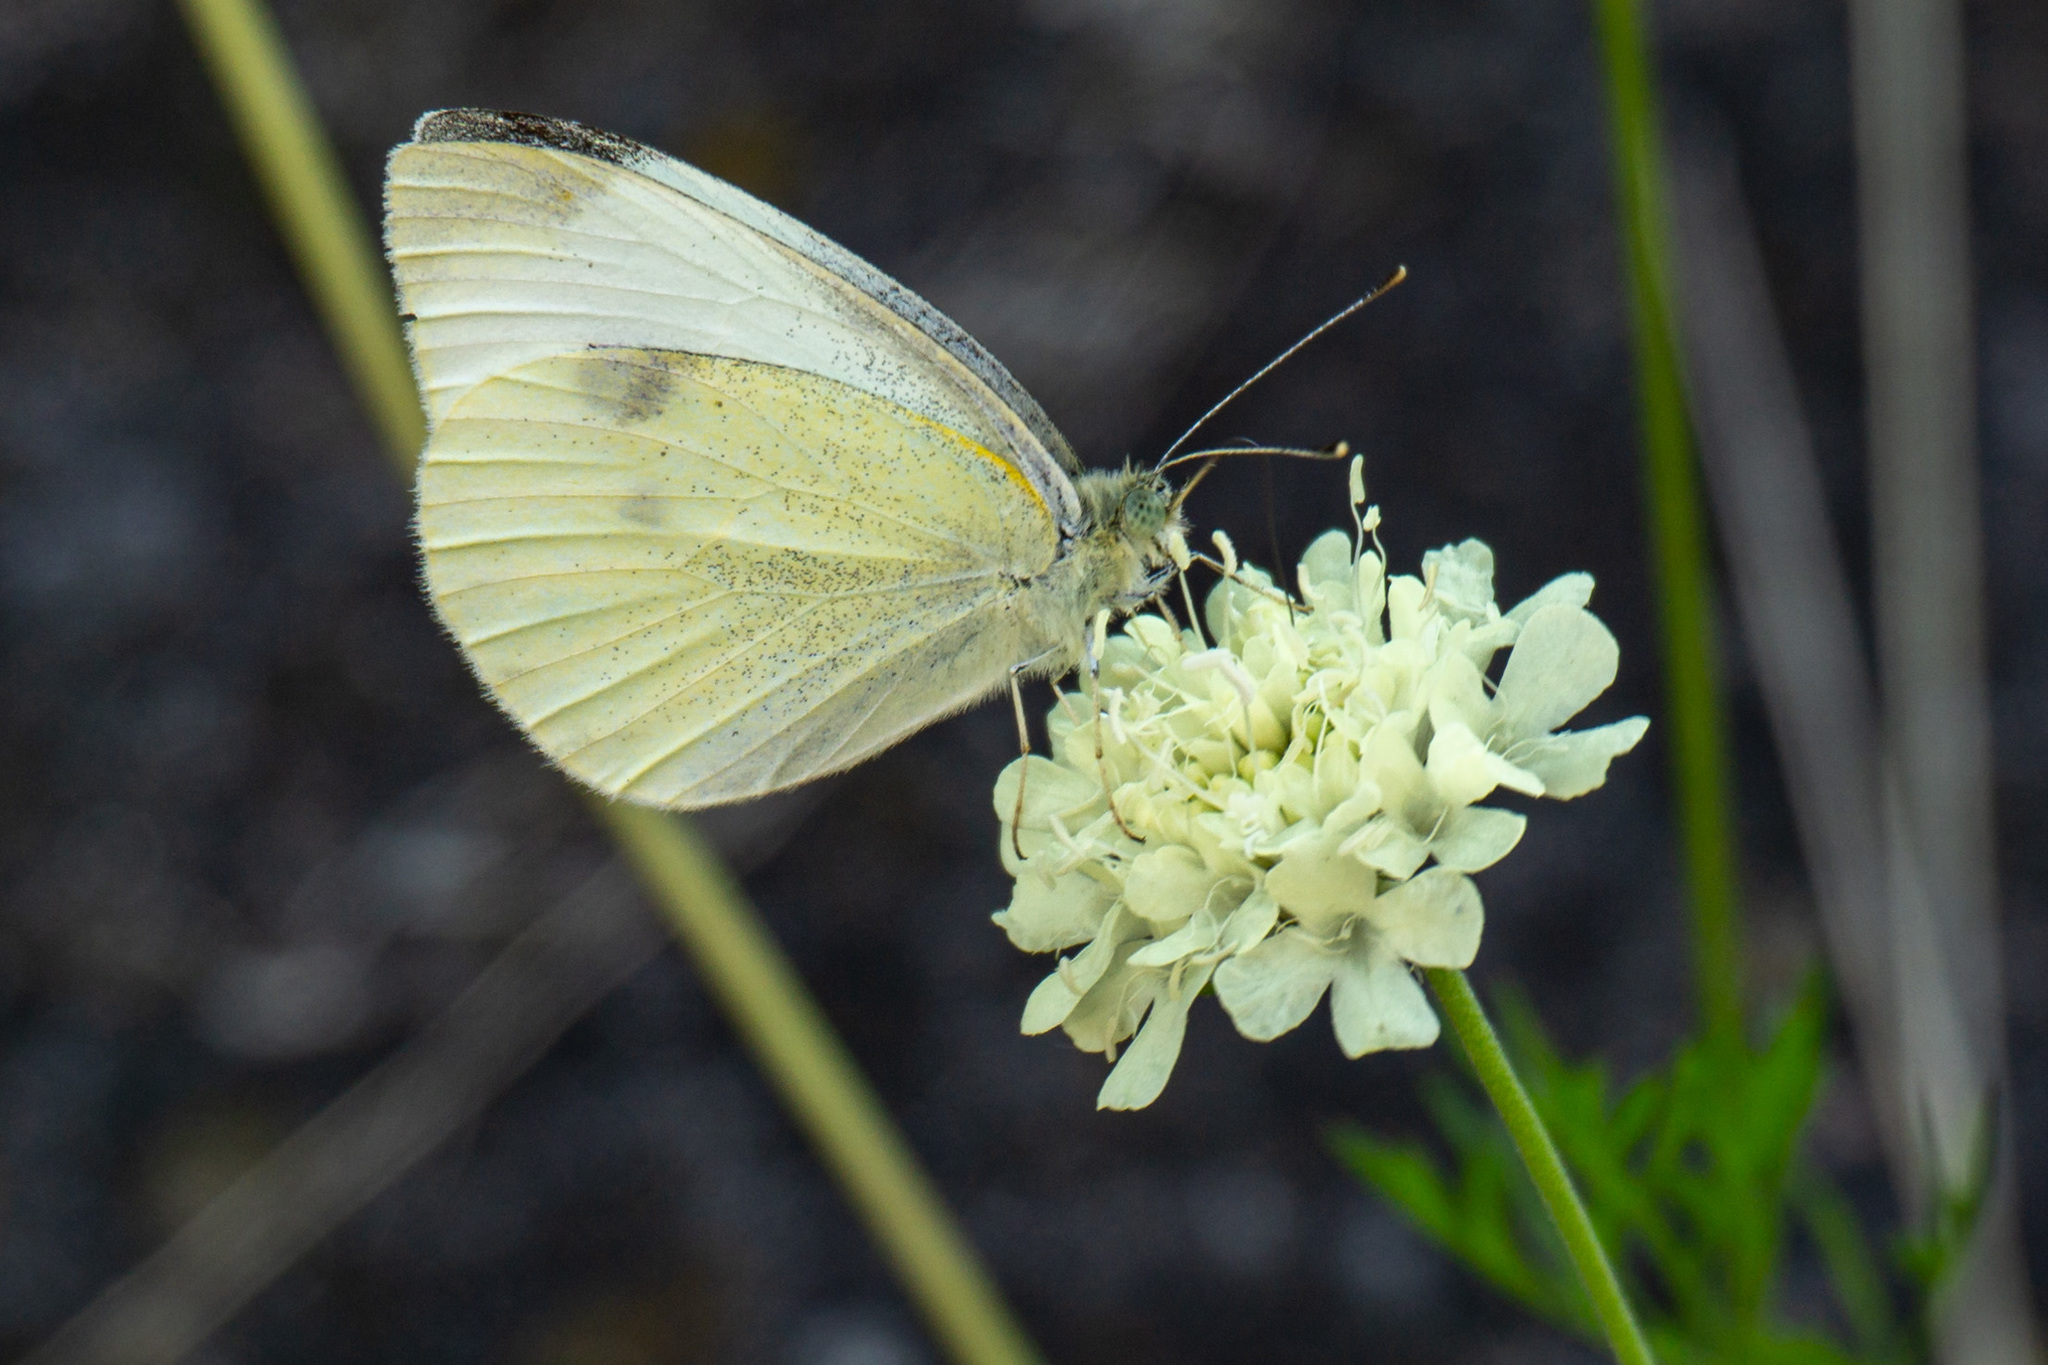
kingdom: Animalia
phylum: Arthropoda
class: Insecta
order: Lepidoptera
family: Pieridae
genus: Pieris
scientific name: Pieris rapae
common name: Small white
